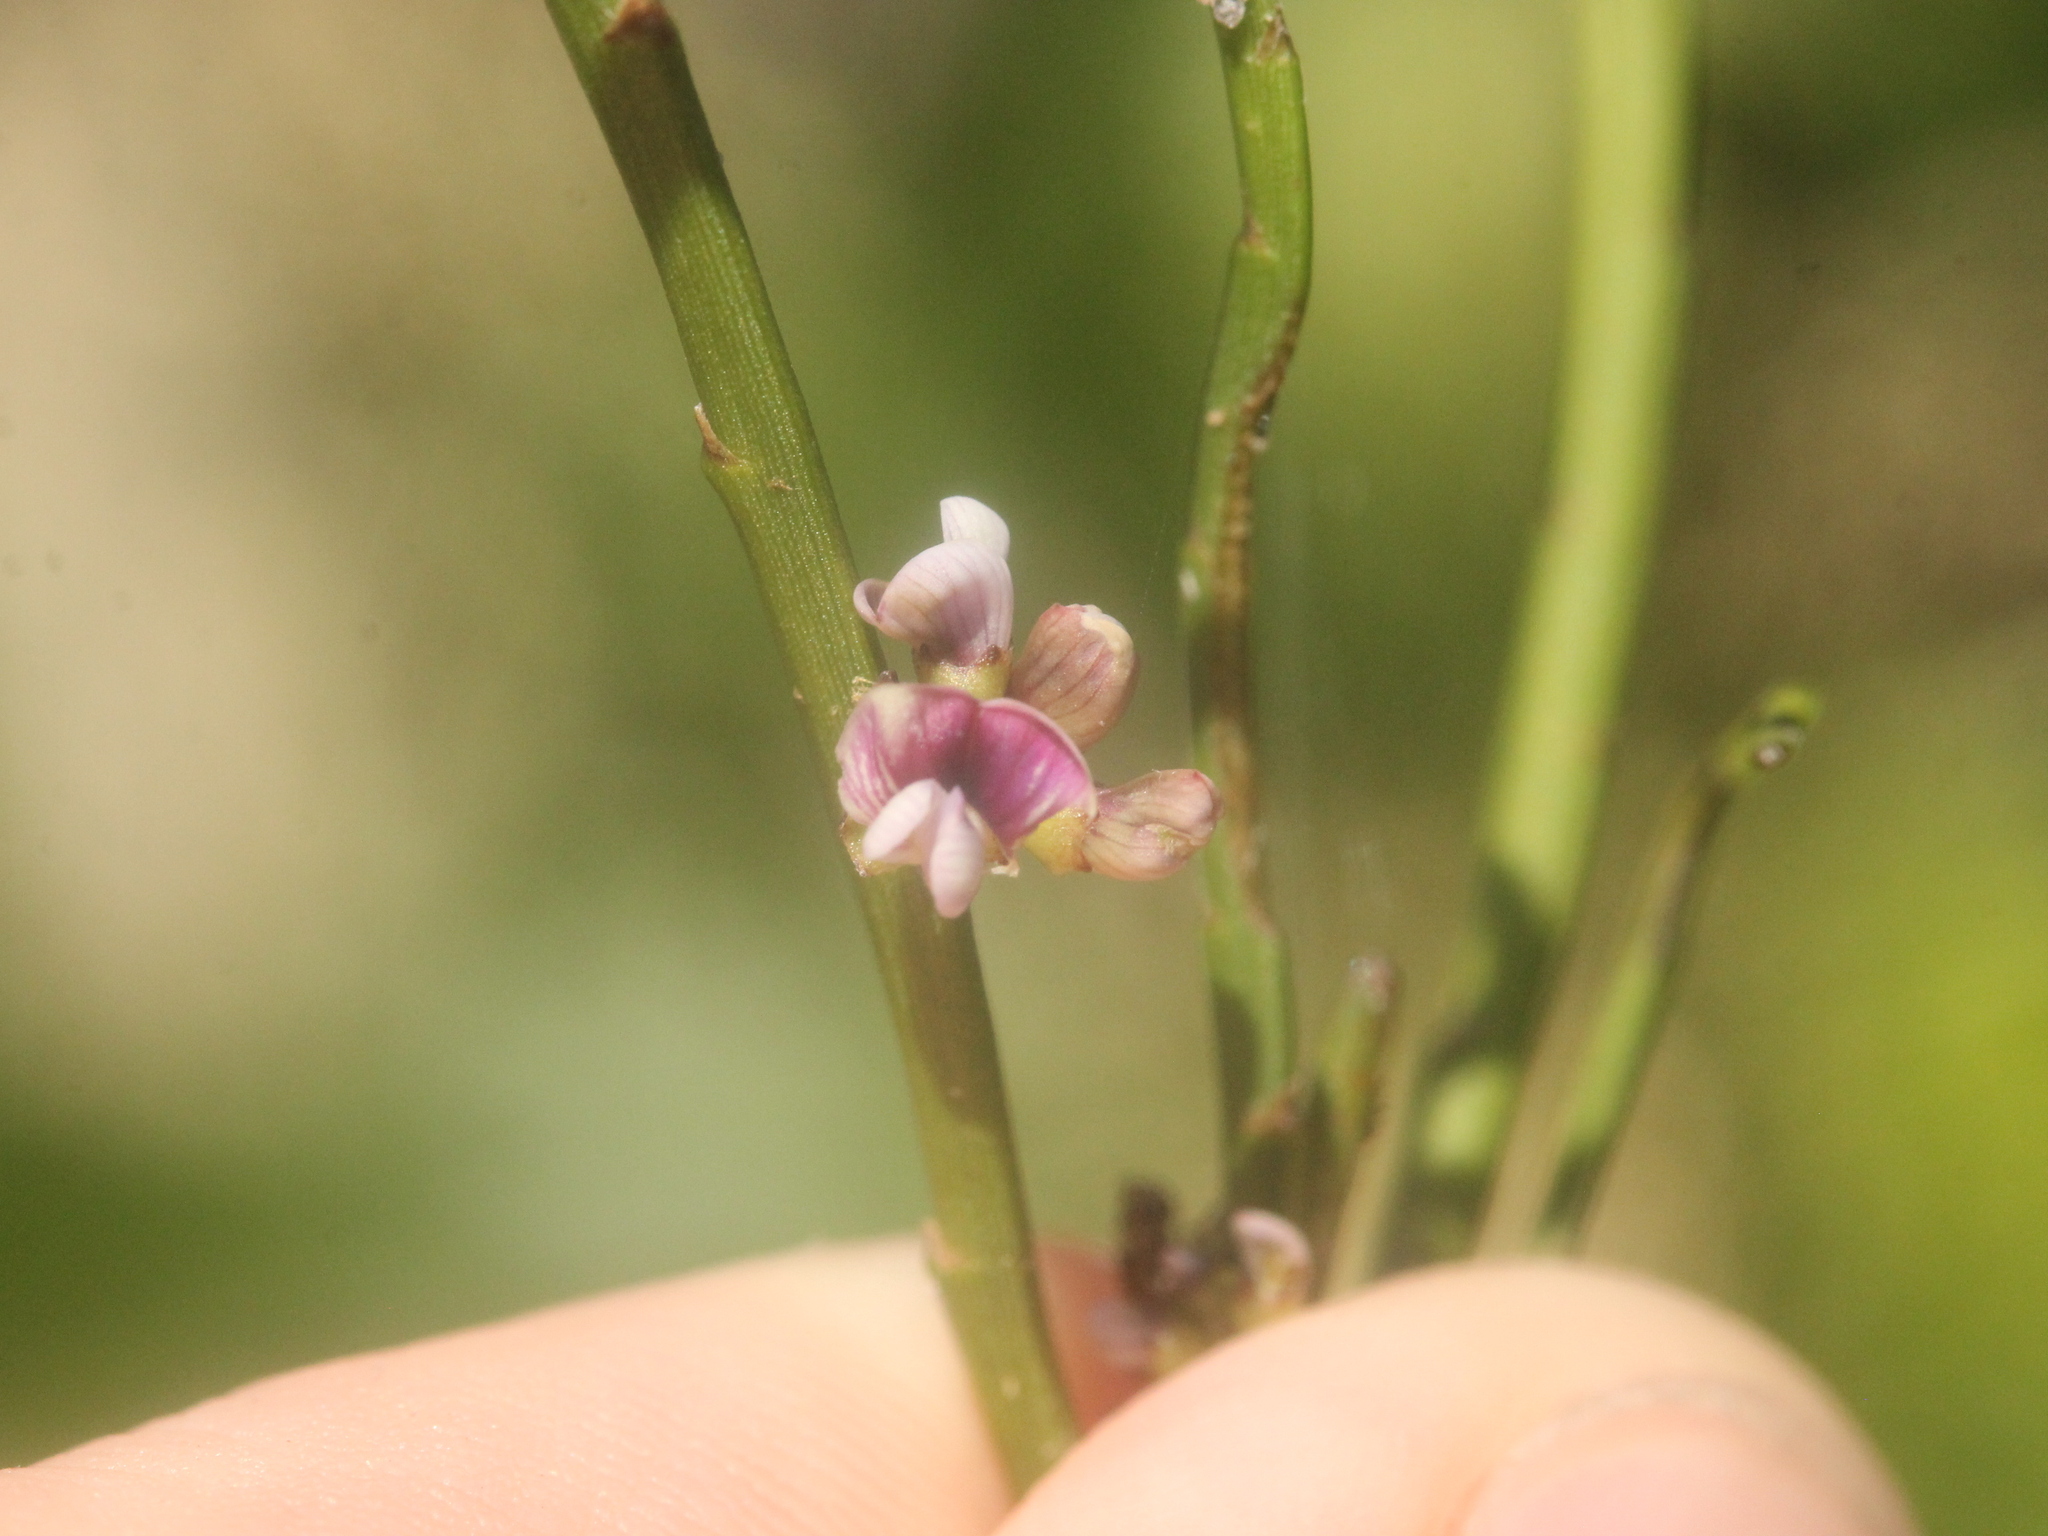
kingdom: Plantae
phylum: Tracheophyta
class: Magnoliopsida
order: Fabales
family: Fabaceae
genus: Carmichaelia
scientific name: Carmichaelia australis
